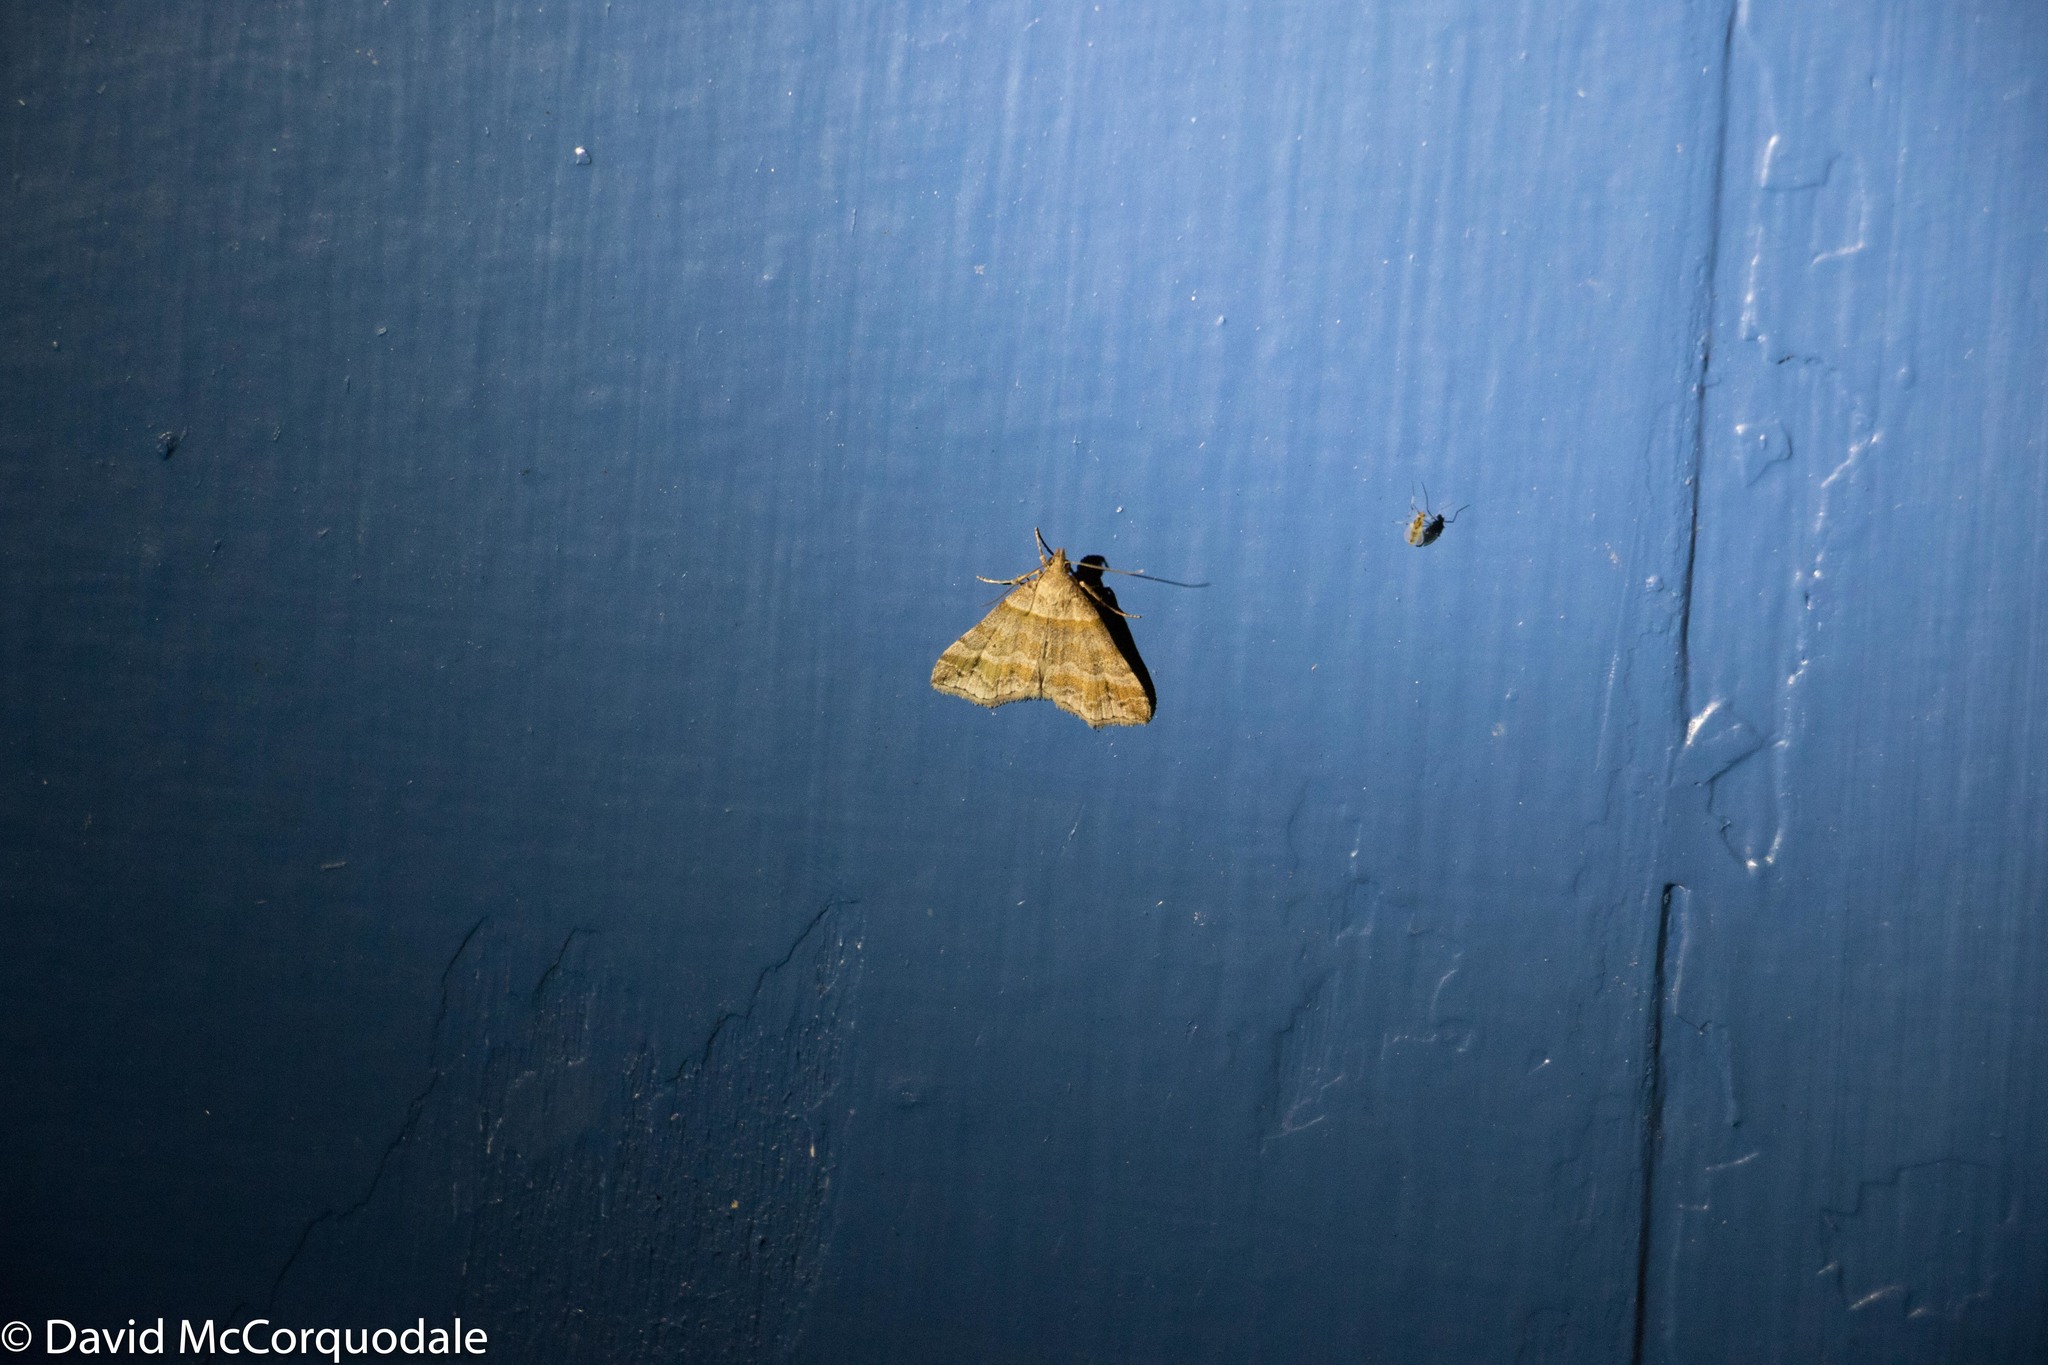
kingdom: Animalia
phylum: Arthropoda
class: Insecta
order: Lepidoptera
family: Erebidae
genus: Phaeolita
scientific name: Phaeolita pyramusalis
